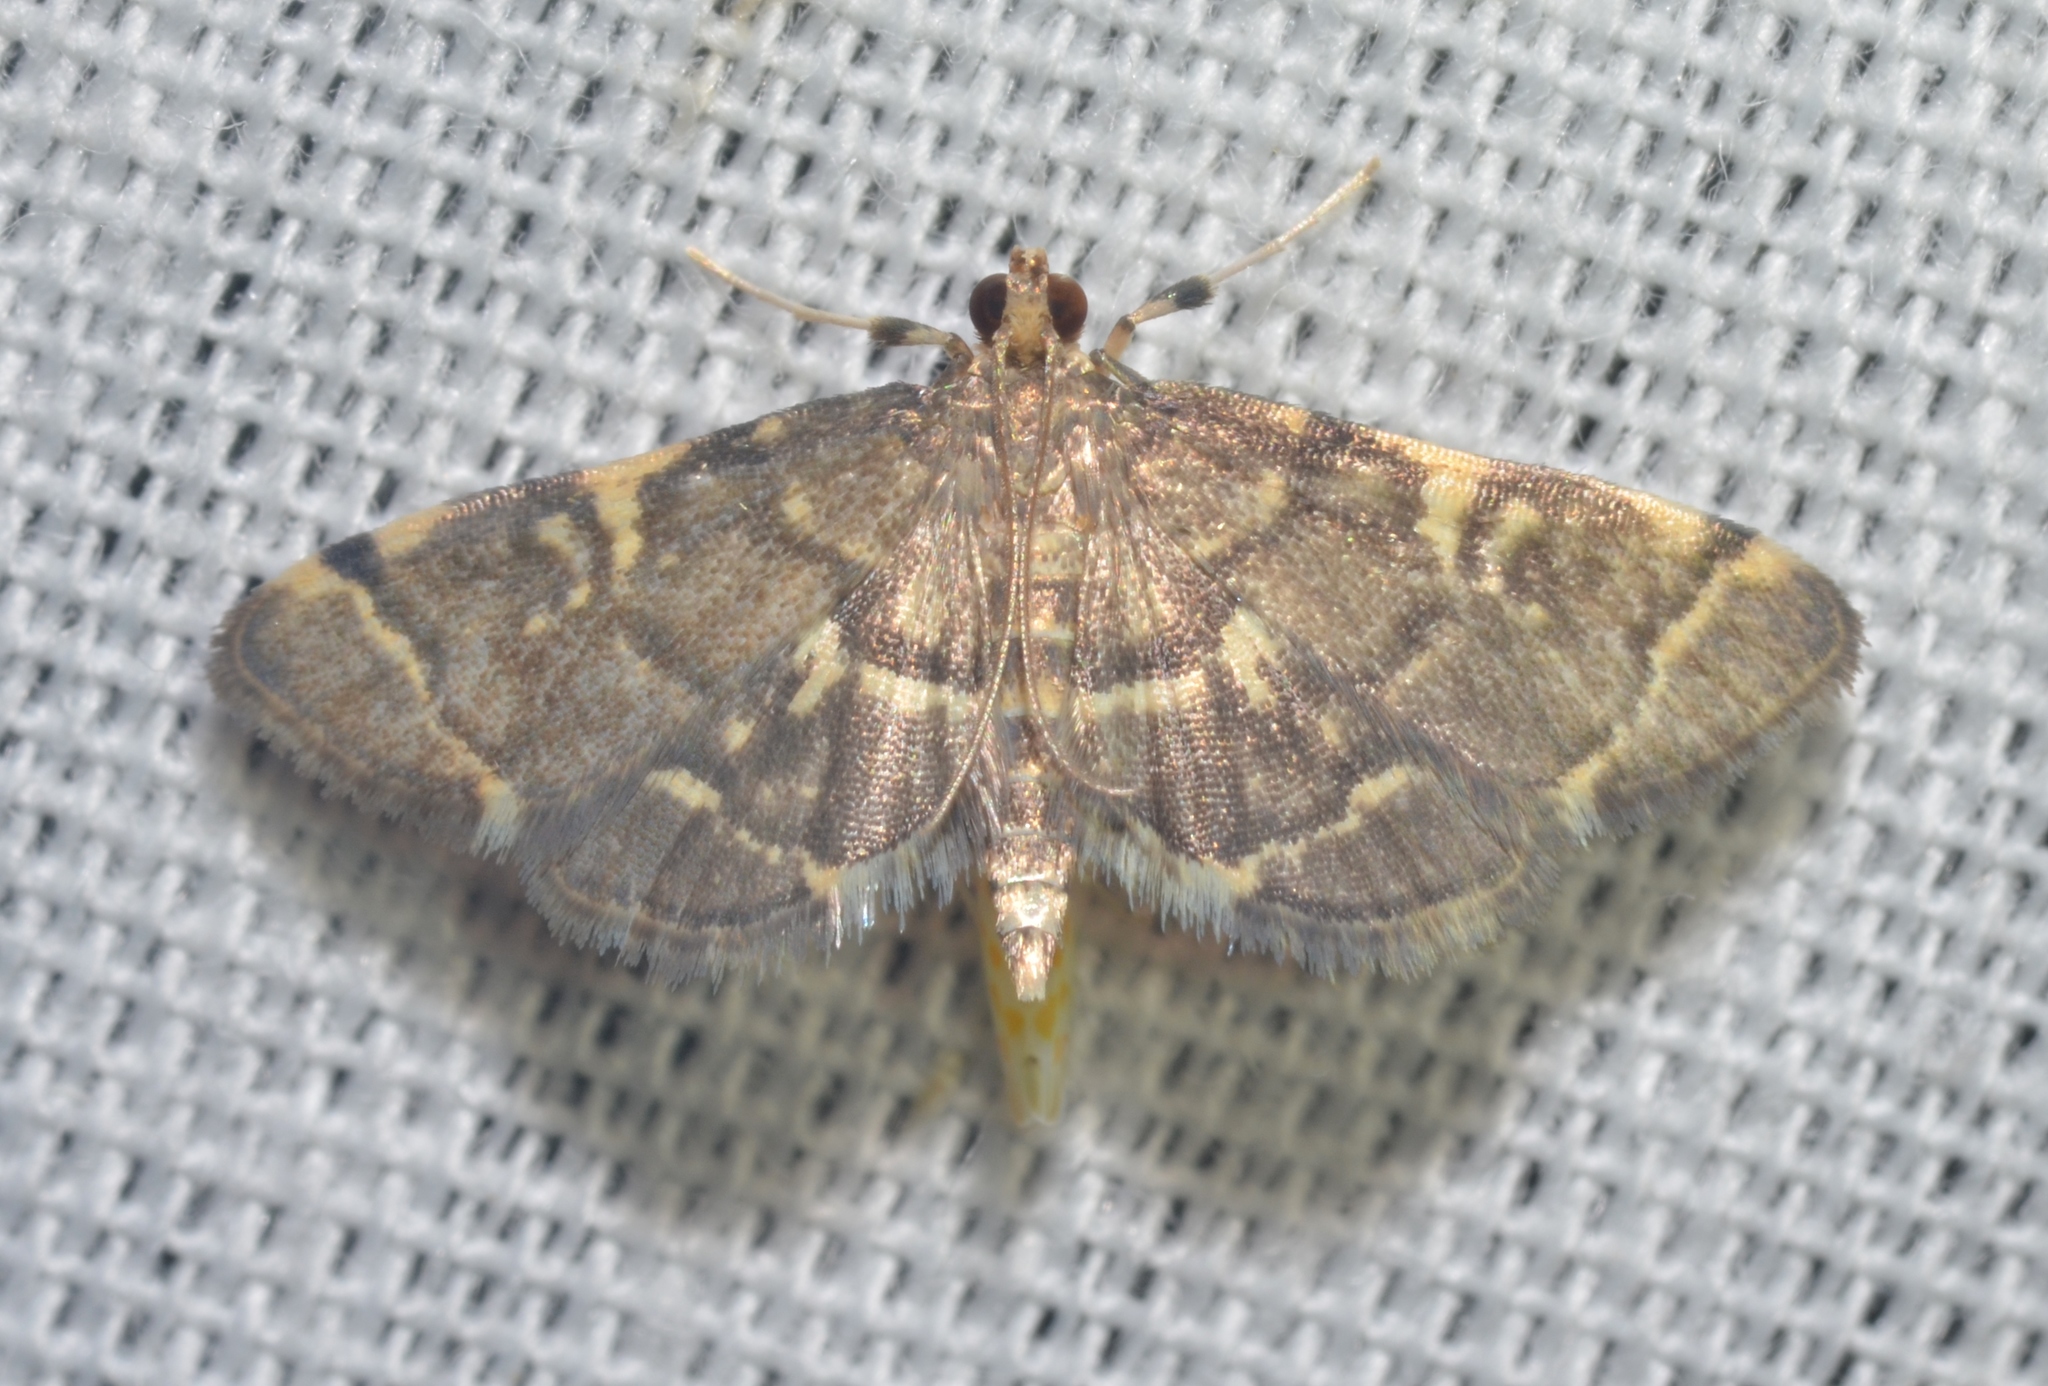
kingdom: Animalia
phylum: Arthropoda
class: Insecta
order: Lepidoptera
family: Crambidae
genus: Anageshna
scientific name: Anageshna primordialis
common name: Yellow-spotted webworm moth
